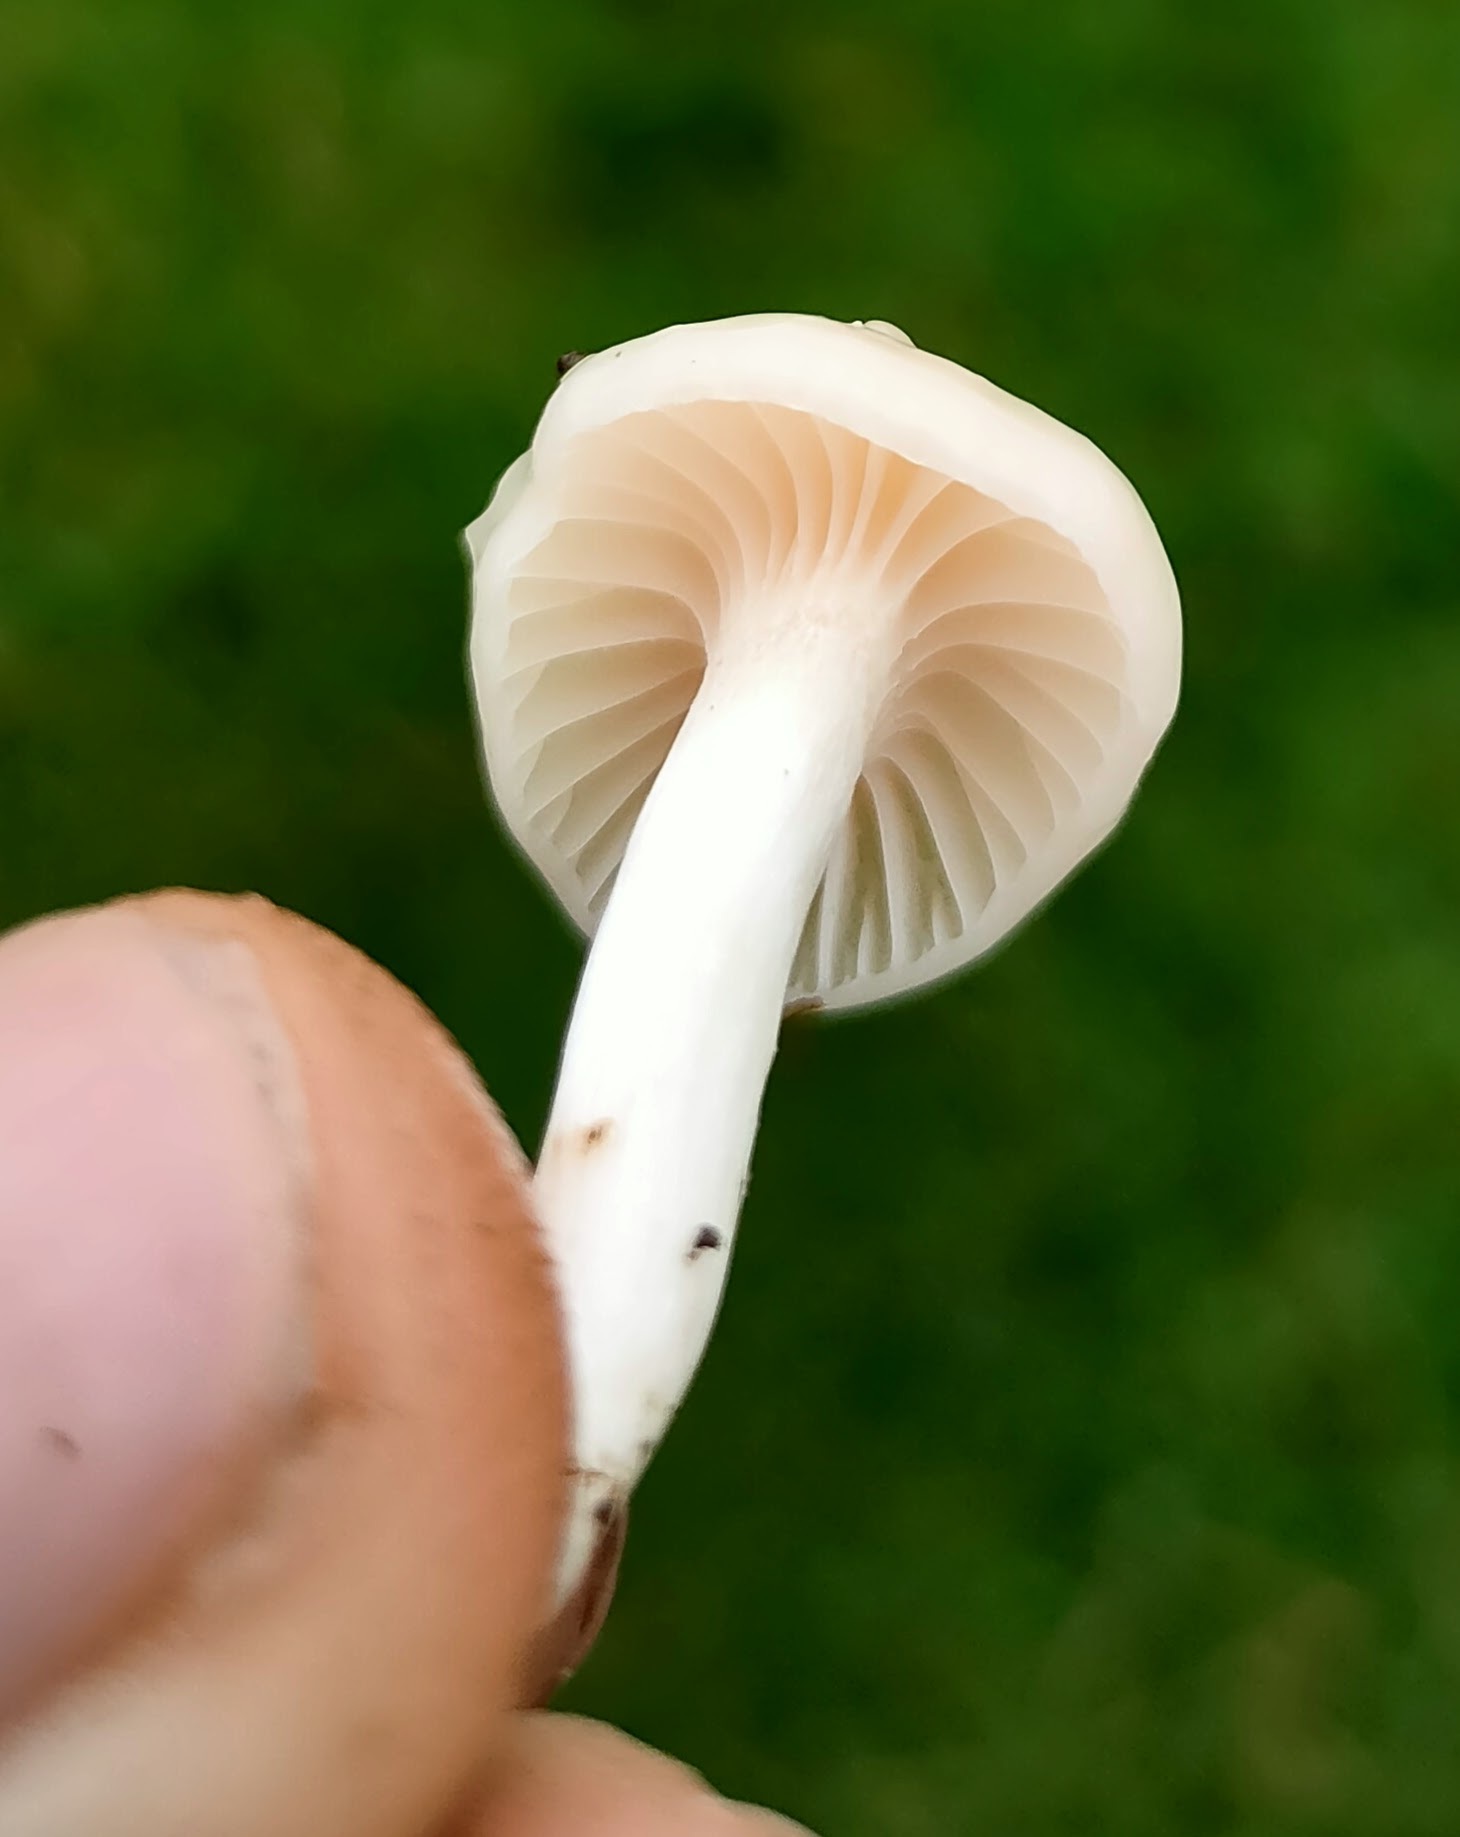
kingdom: Fungi
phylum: Basidiomycota
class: Agaricomycetes
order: Agaricales
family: Hygrophoraceae
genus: Cuphophyllus
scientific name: Cuphophyllus virgineus
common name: Snowy waxcap
